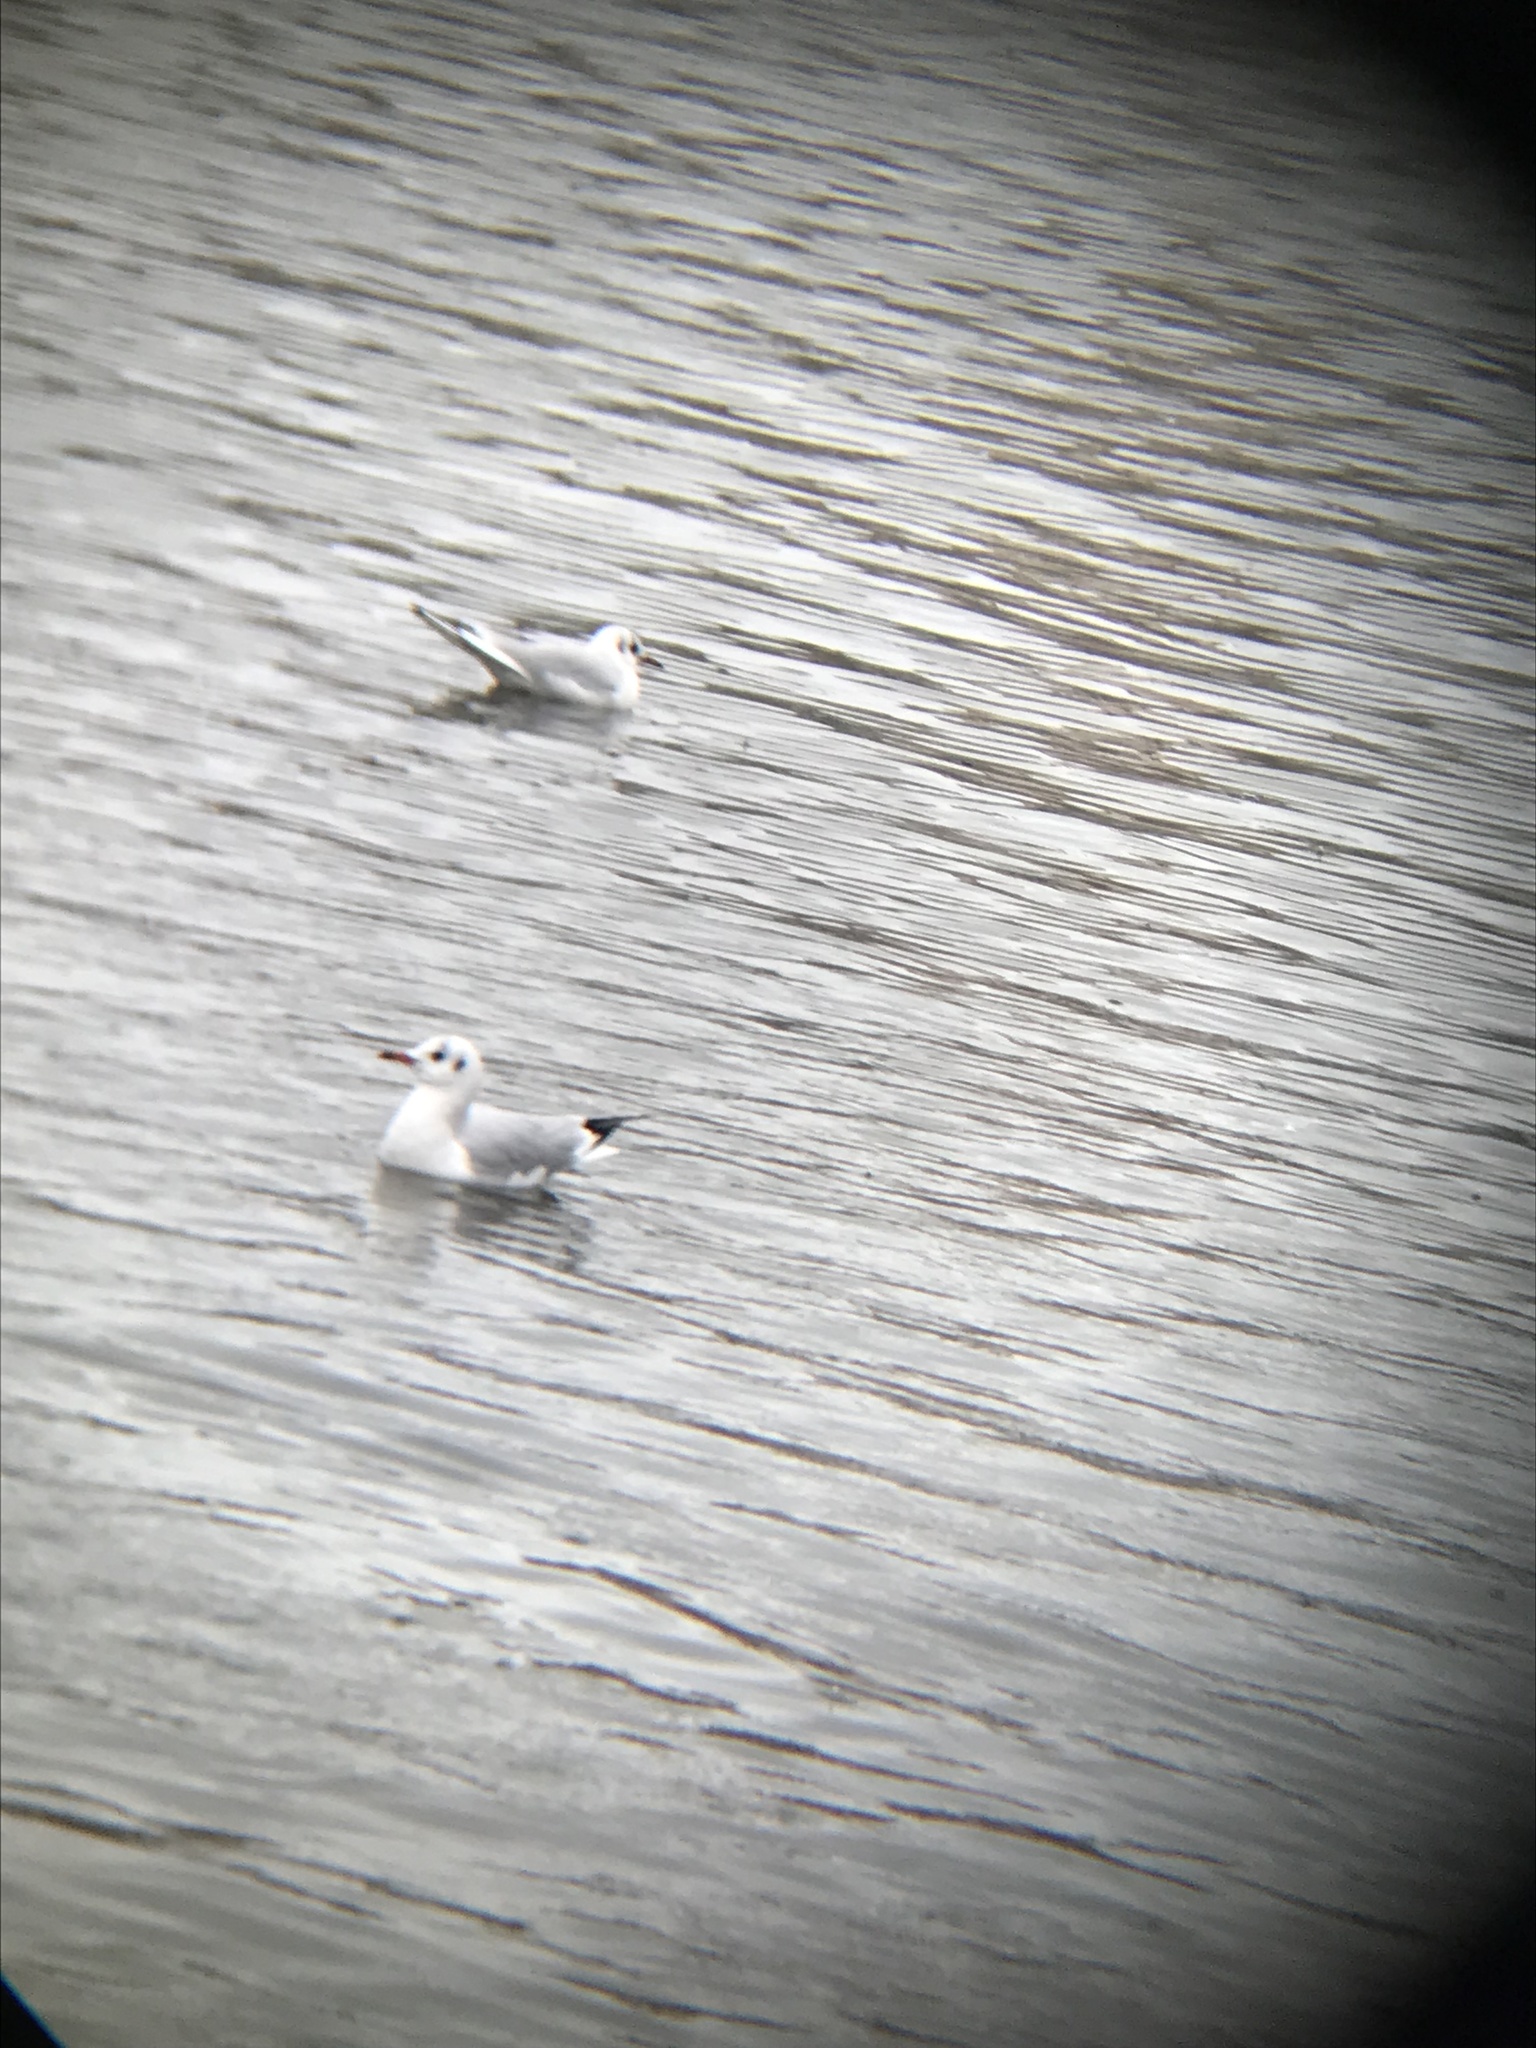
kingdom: Animalia
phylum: Chordata
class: Aves
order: Charadriiformes
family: Laridae
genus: Chroicocephalus
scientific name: Chroicocephalus ridibundus
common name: Black-headed gull
